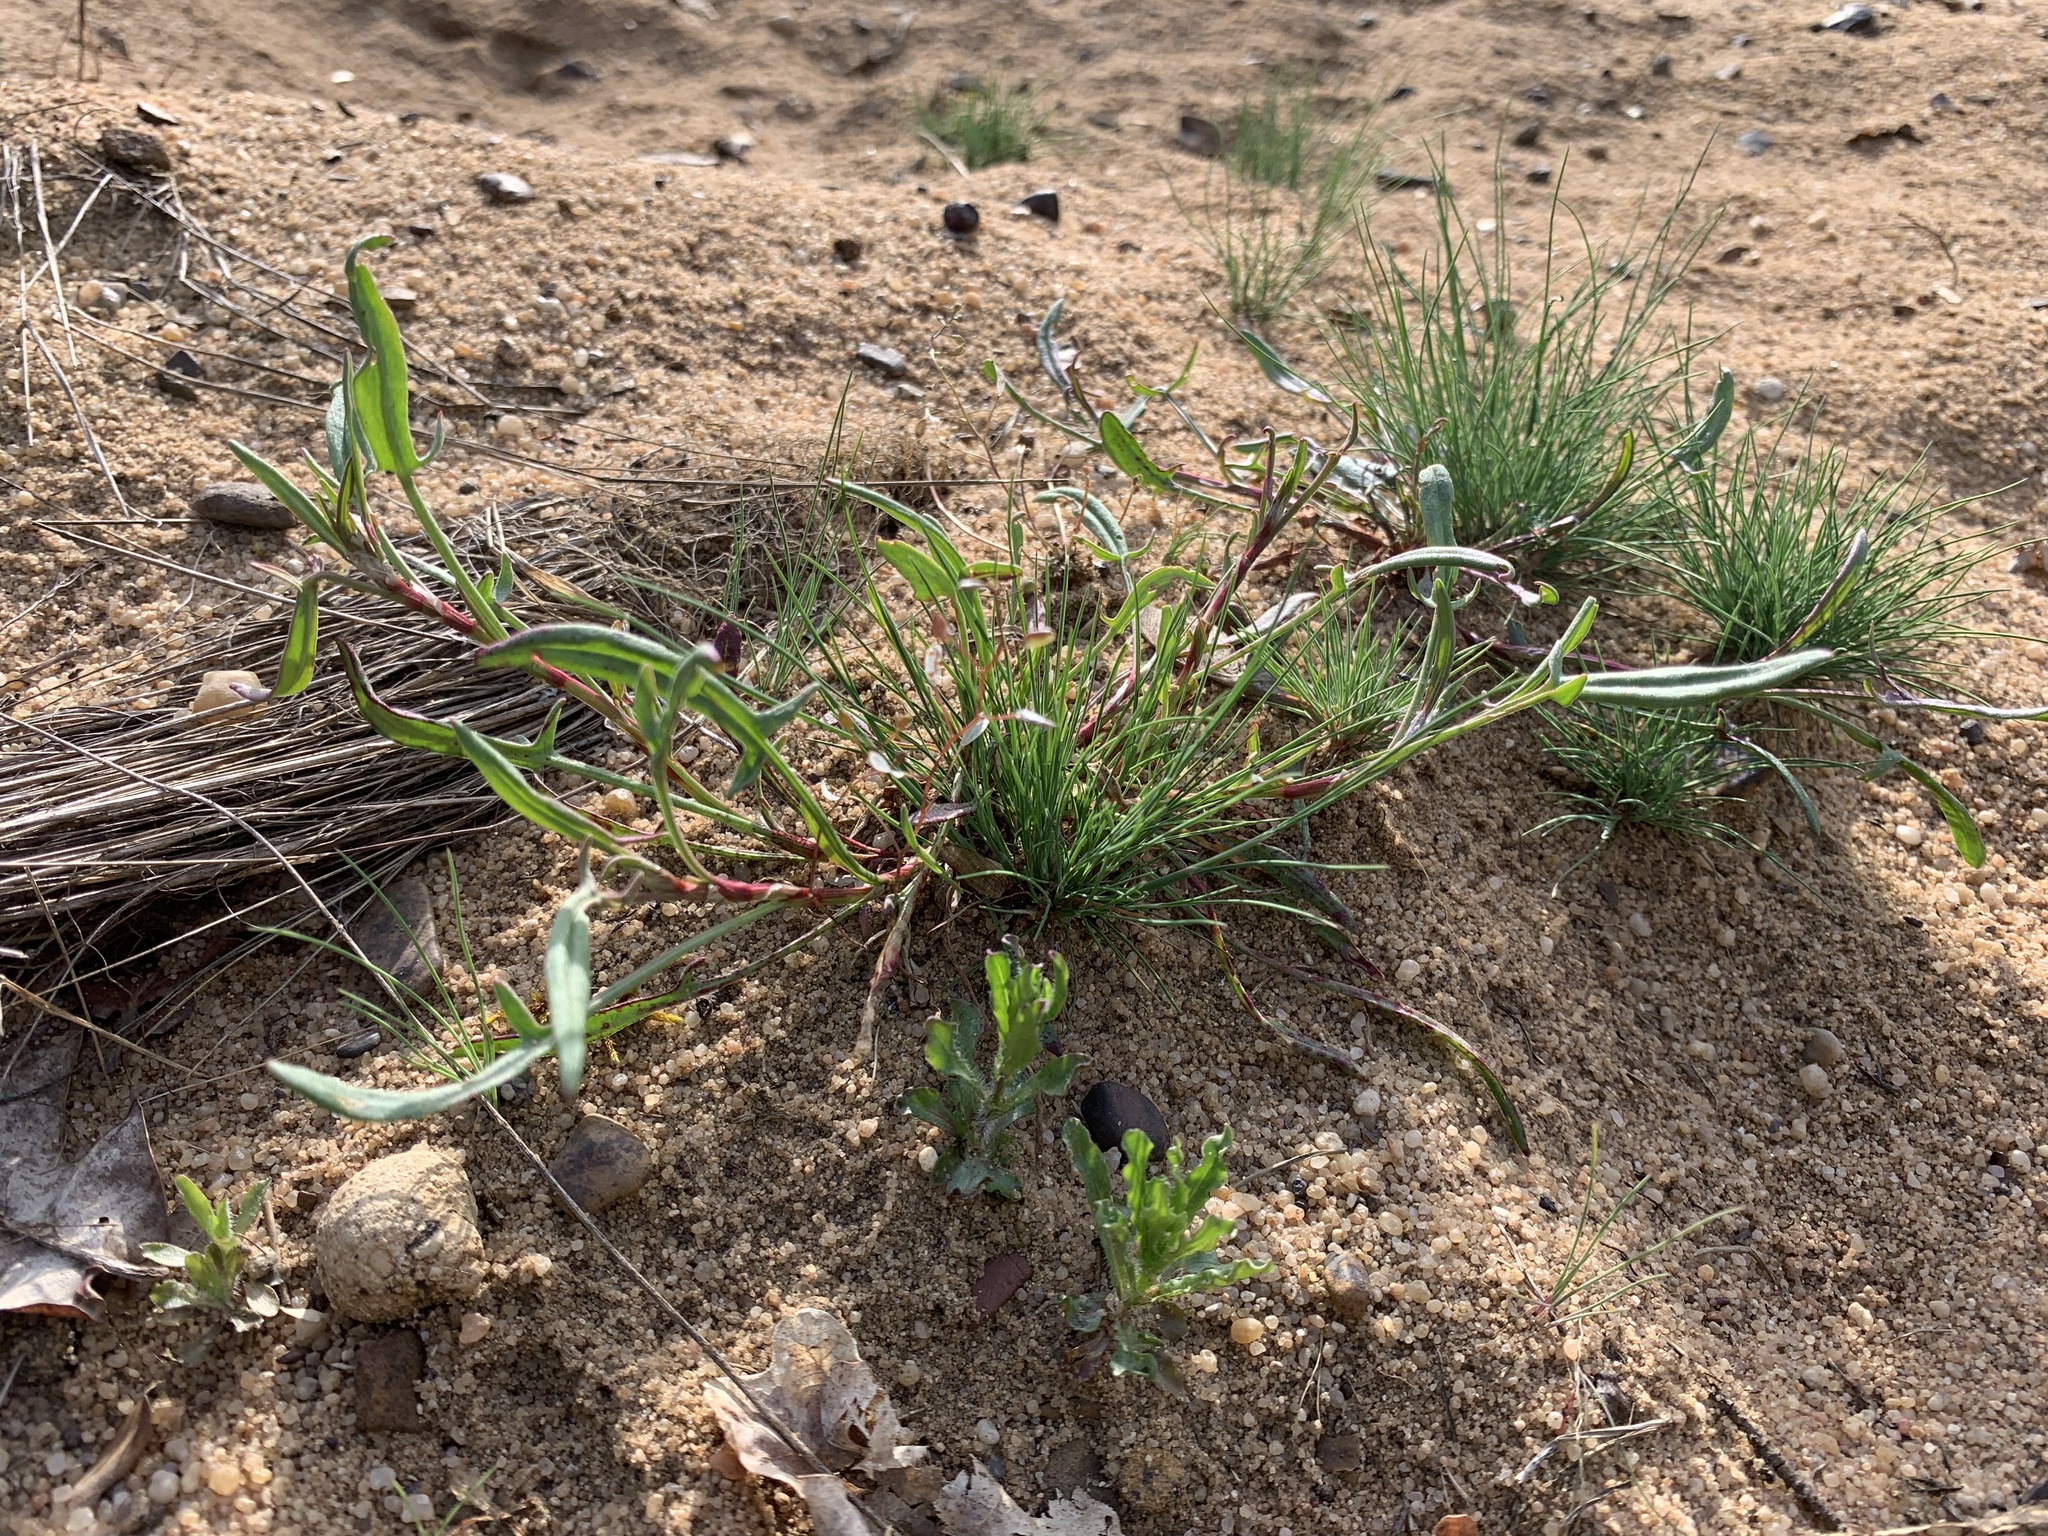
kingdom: Plantae
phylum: Tracheophyta
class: Magnoliopsida
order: Caryophyllales
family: Polygonaceae
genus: Rumex
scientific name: Rumex acetosella
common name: Common sheep sorrel
